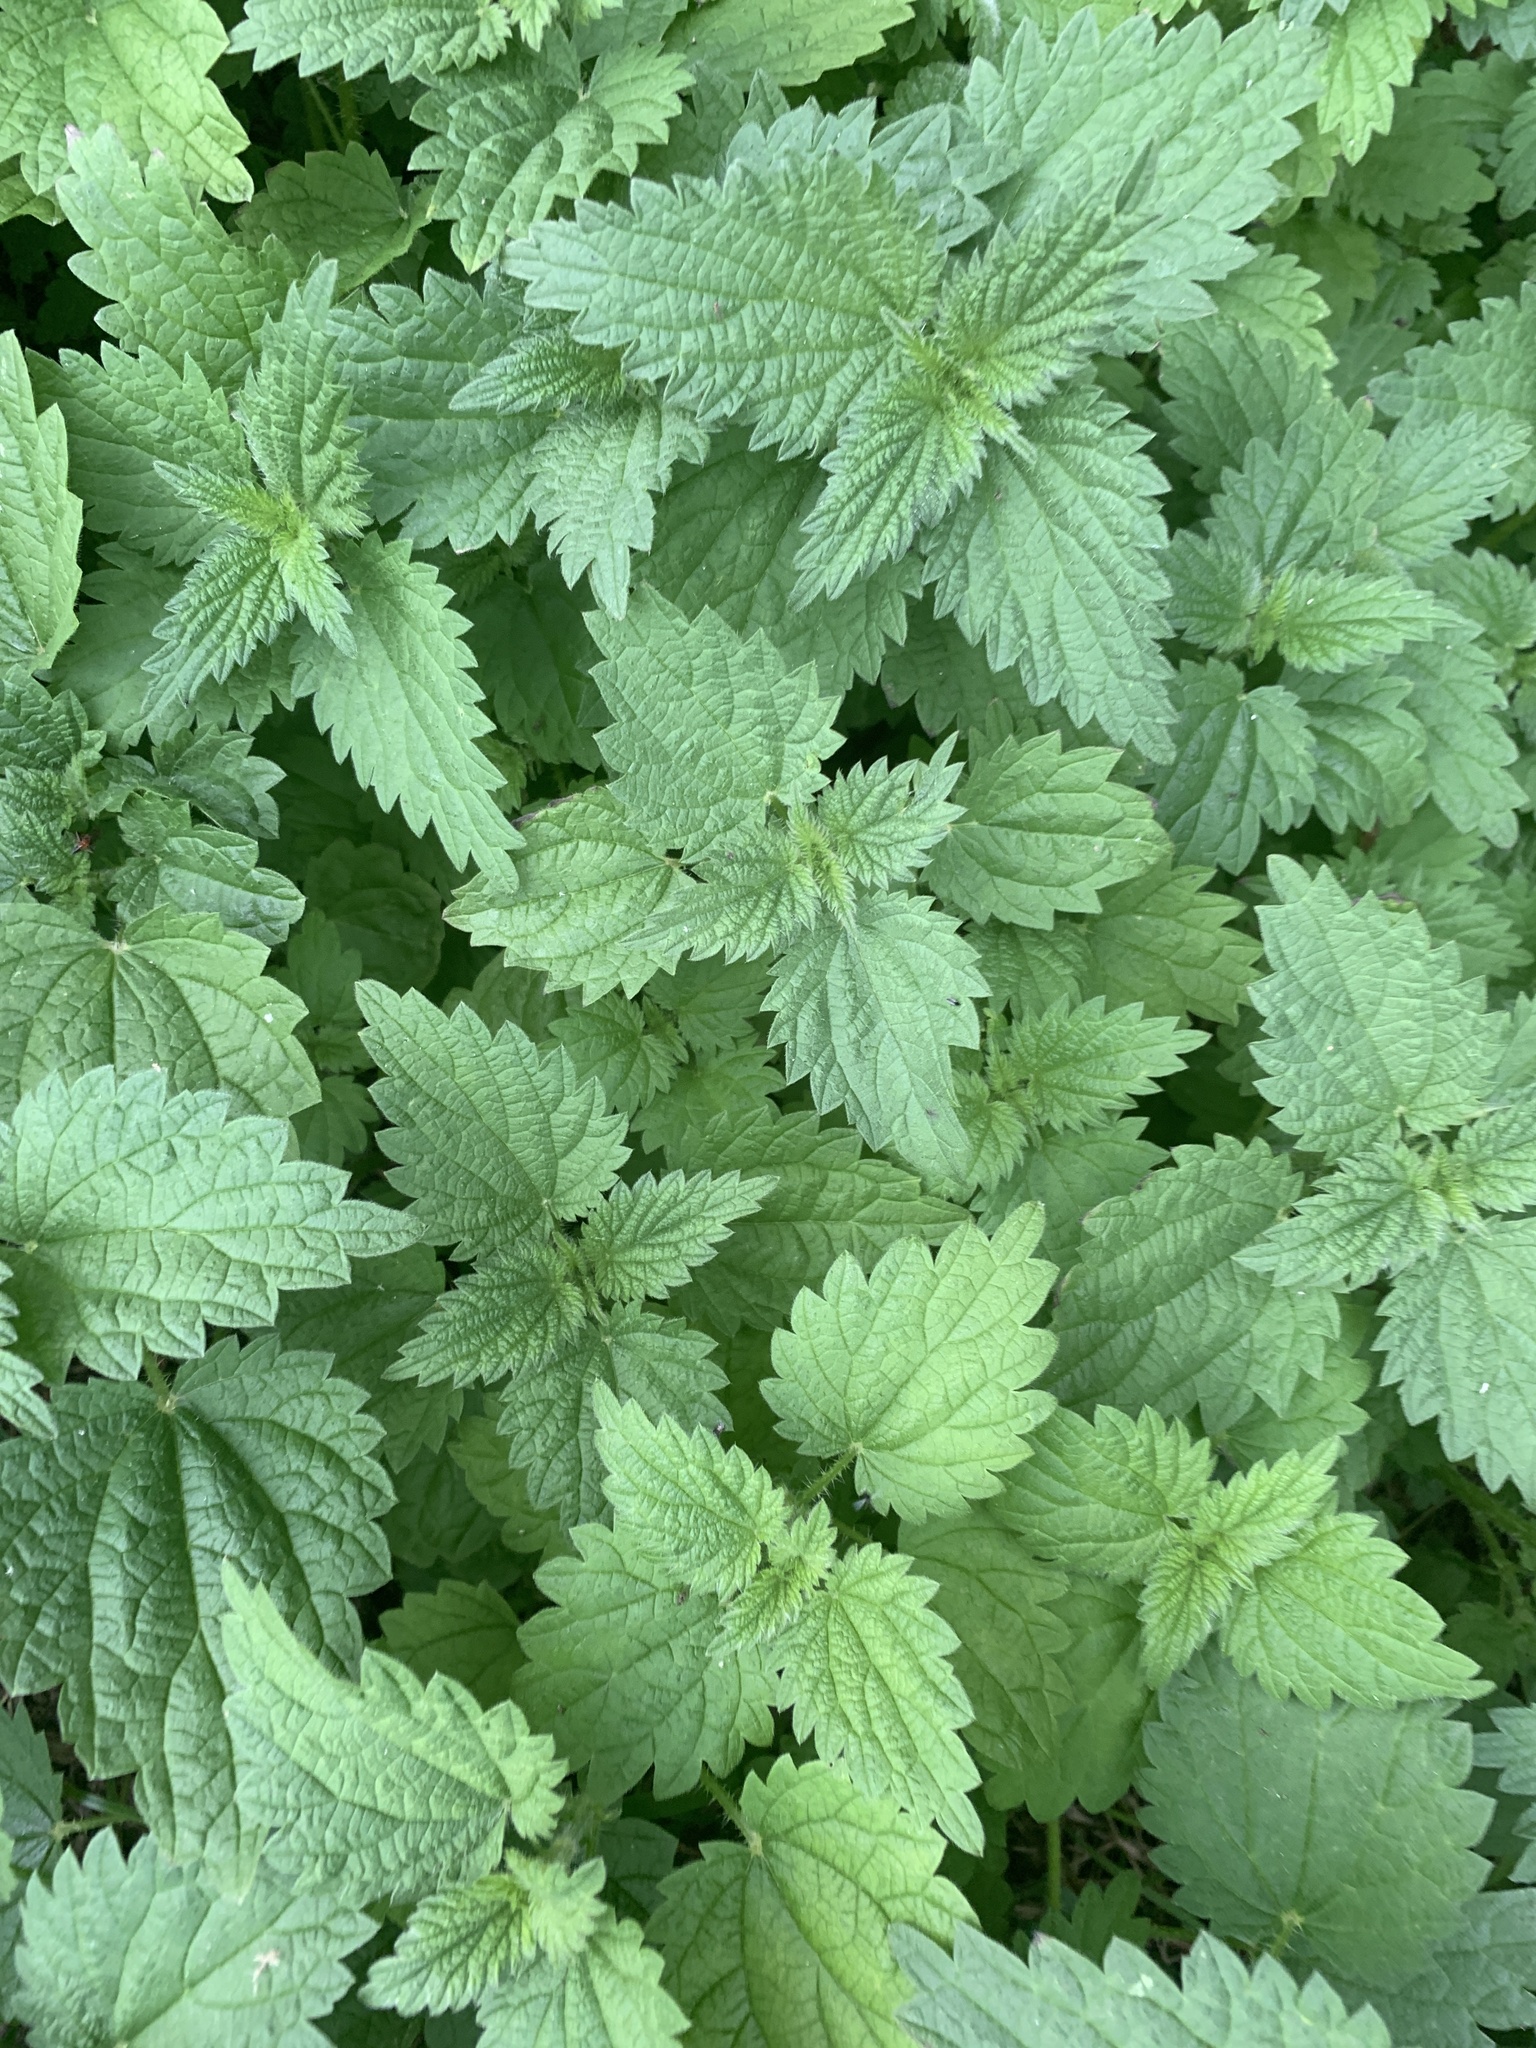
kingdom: Plantae
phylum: Tracheophyta
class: Magnoliopsida
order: Rosales
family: Urticaceae
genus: Urtica
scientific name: Urtica dioica
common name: Common nettle
